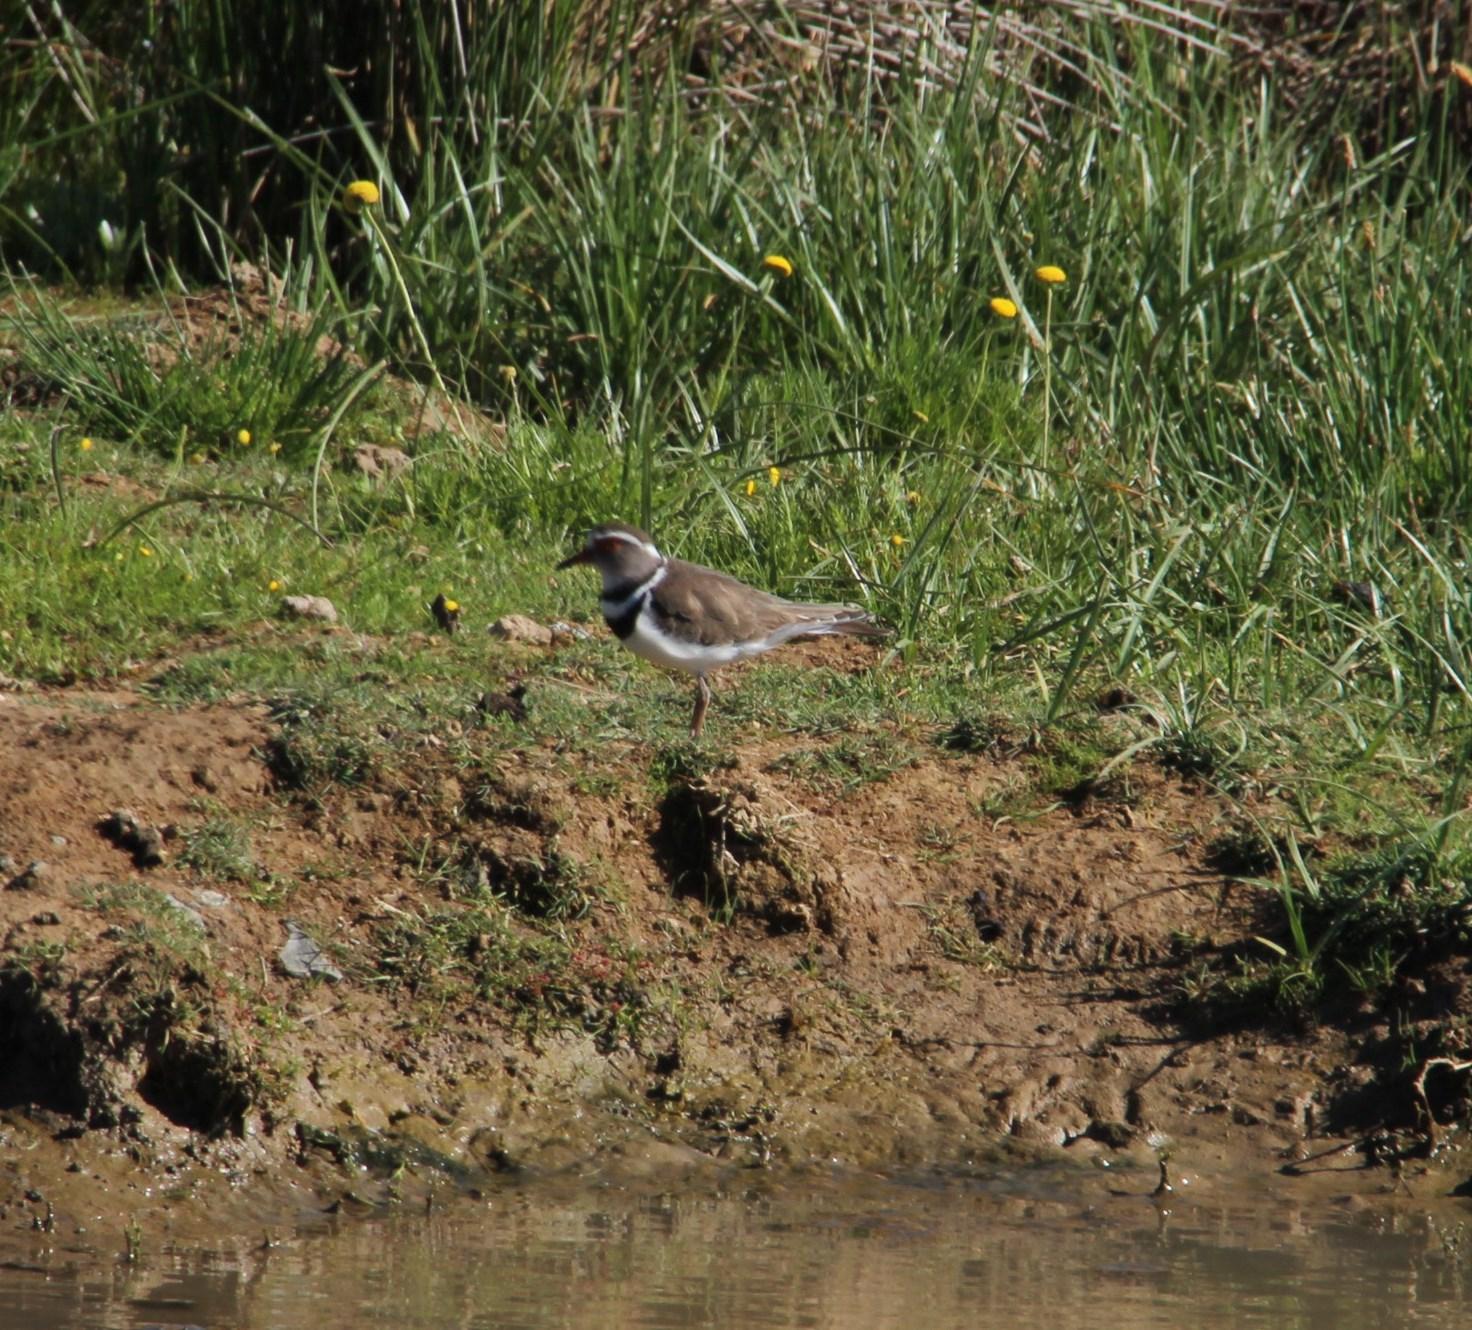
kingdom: Animalia
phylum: Chordata
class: Aves
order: Charadriiformes
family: Charadriidae
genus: Charadrius
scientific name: Charadrius tricollaris
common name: Three-banded plover
